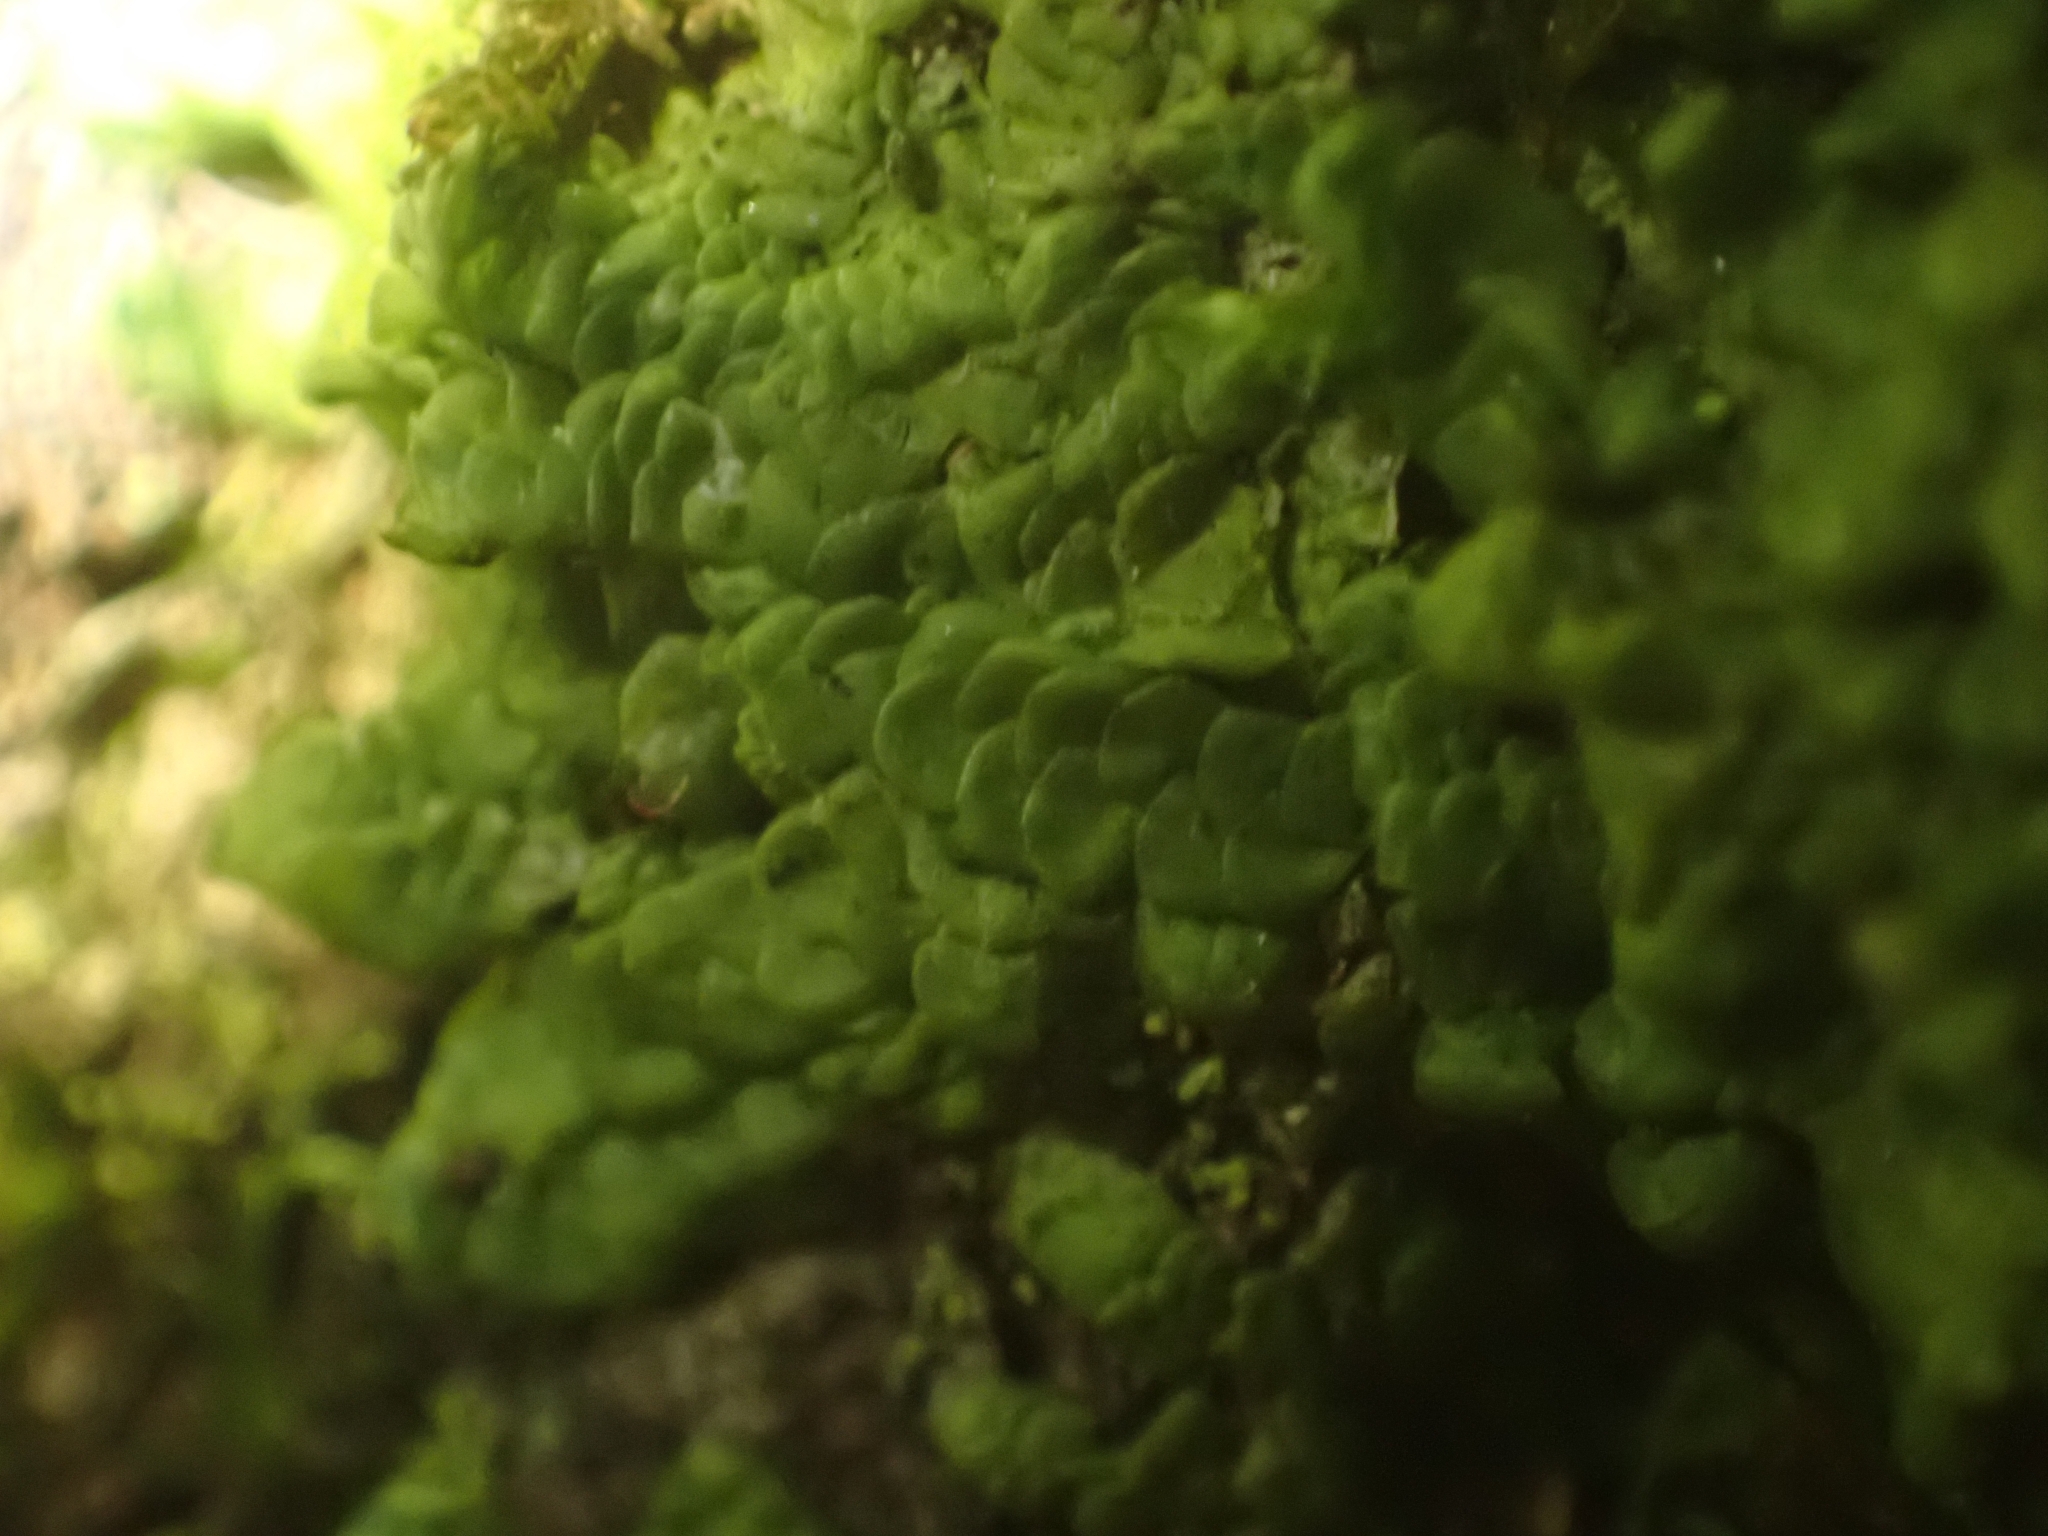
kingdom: Plantae
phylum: Marchantiophyta
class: Jungermanniopsida
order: Porellales
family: Radulaceae
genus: Radula
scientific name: Radula complanata
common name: Flat-leaved scalewort
